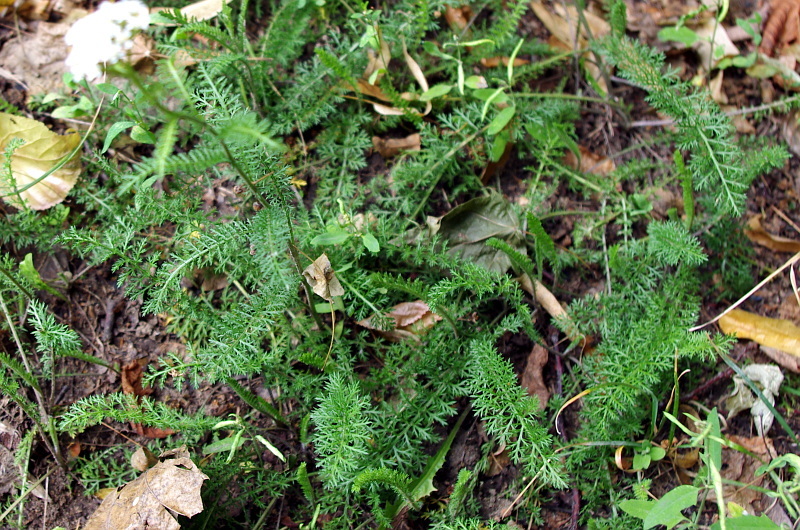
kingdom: Plantae
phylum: Tracheophyta
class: Magnoliopsida
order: Asterales
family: Asteraceae
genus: Achillea
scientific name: Achillea millefolium
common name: Yarrow
